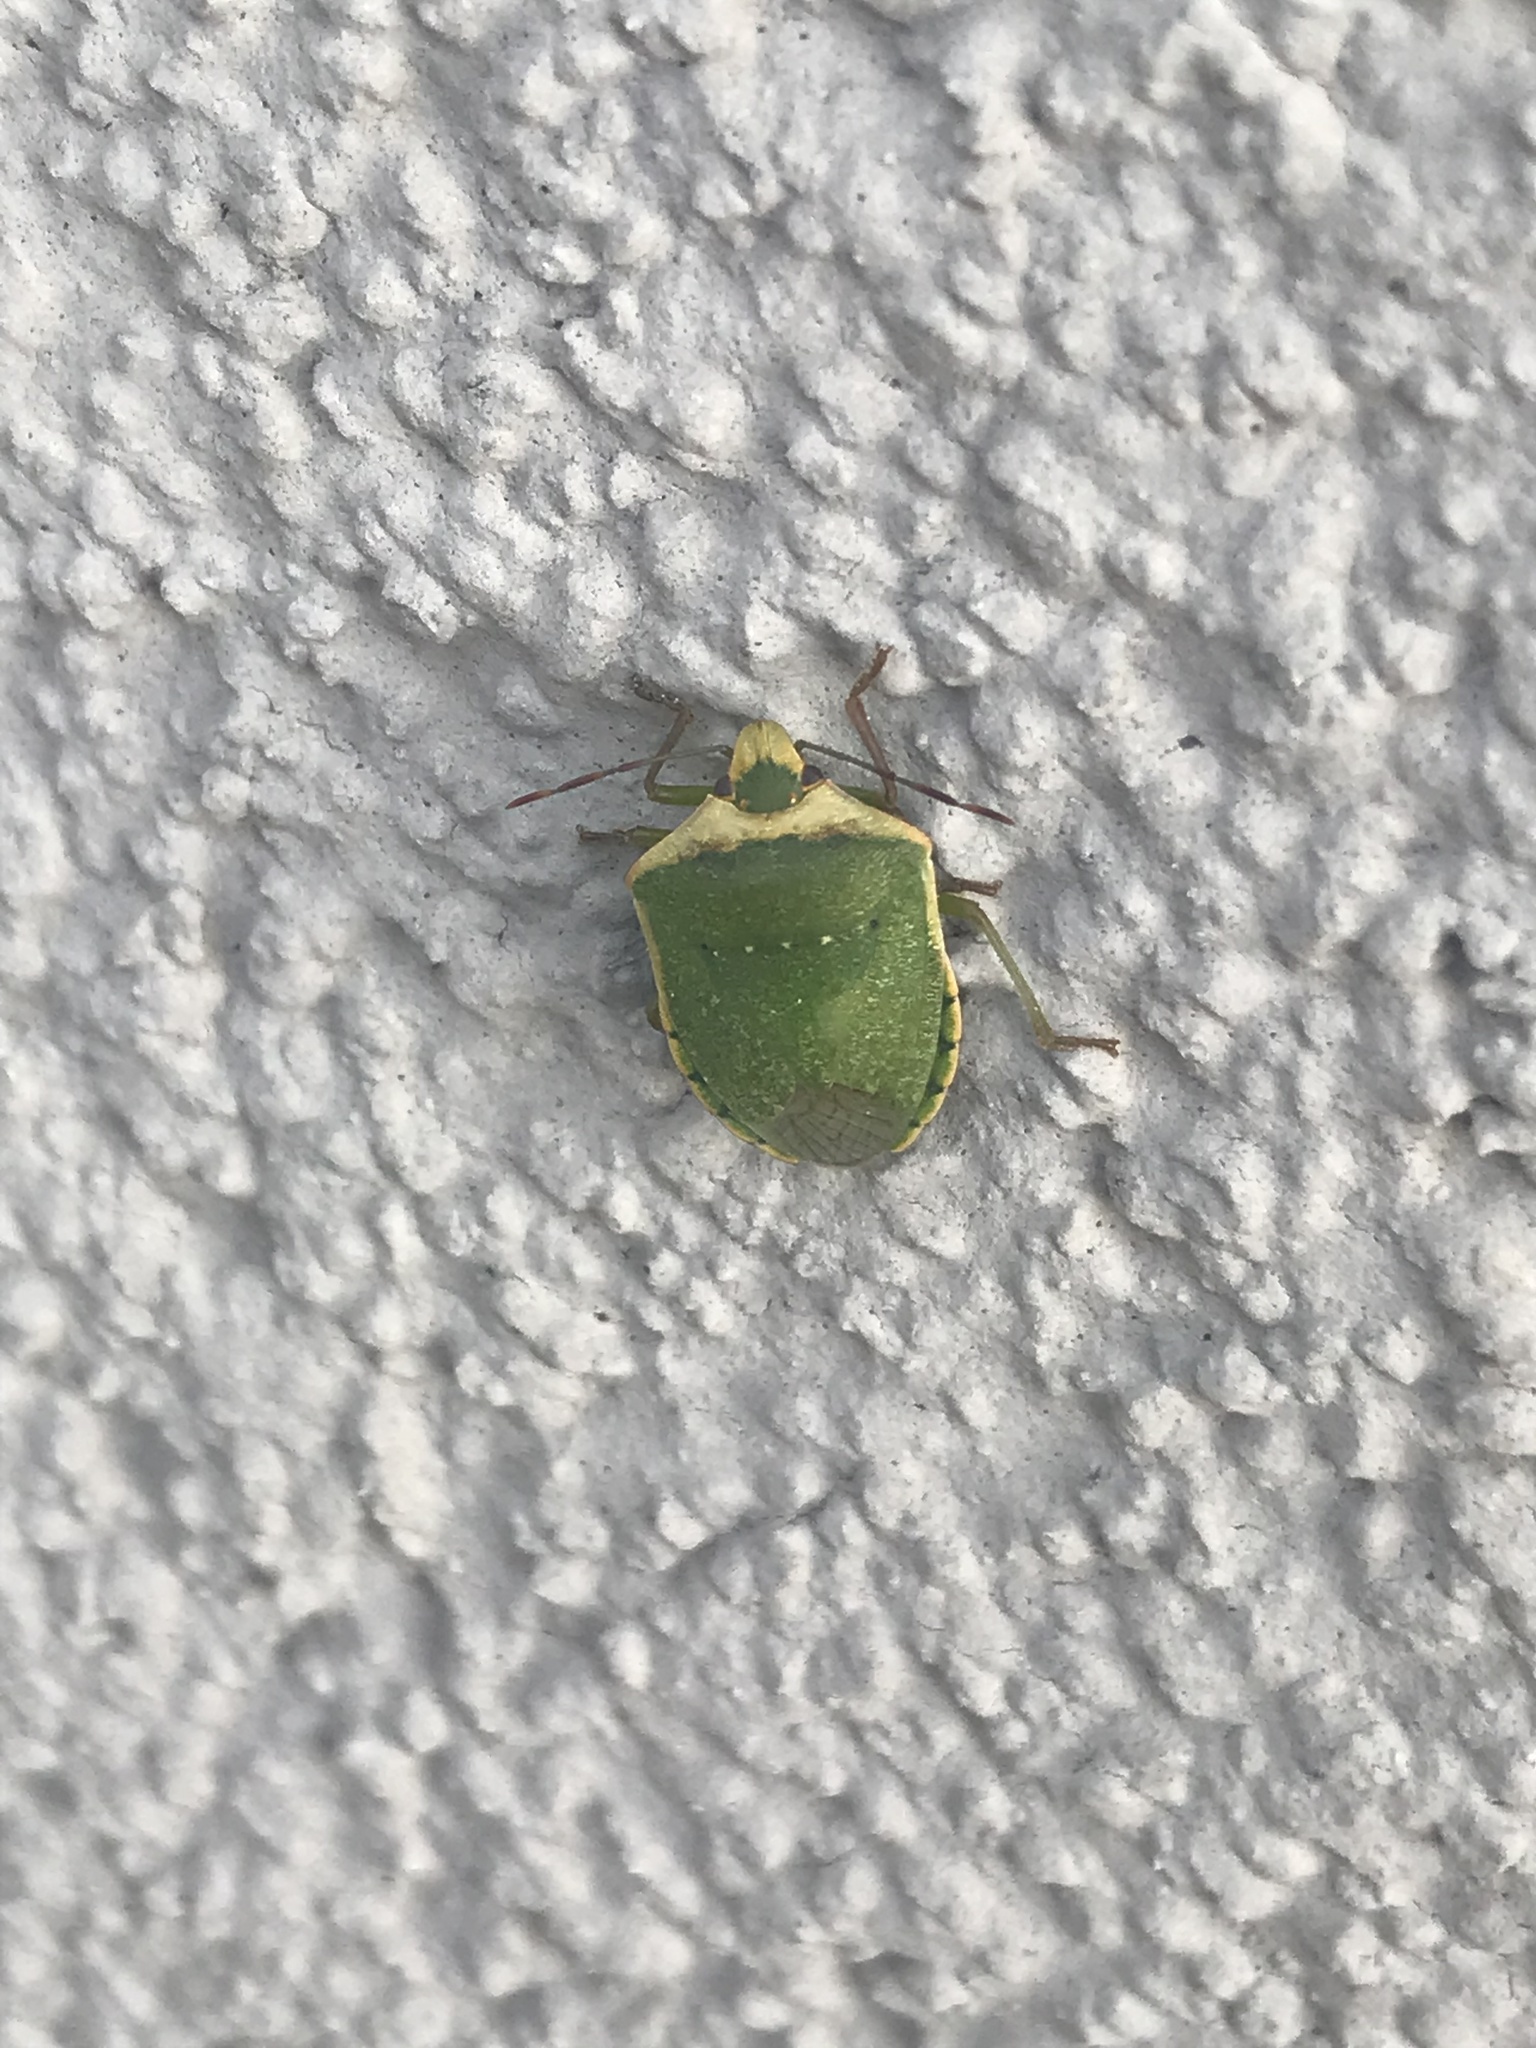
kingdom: Animalia
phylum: Arthropoda
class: Insecta
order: Hemiptera
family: Pentatomidae
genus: Nezara
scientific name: Nezara viridula
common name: Southern green stink bug
